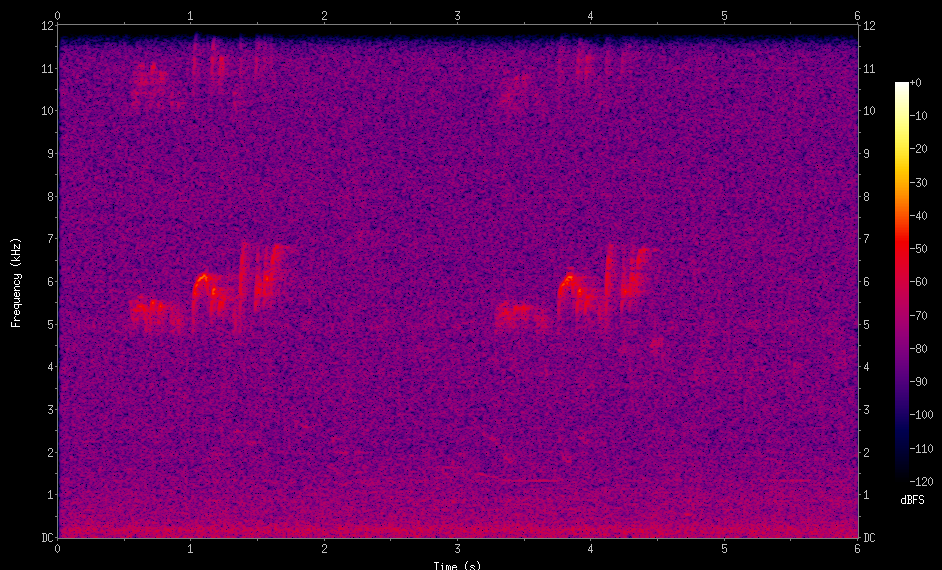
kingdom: Animalia
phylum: Chordata
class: Aves
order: Passeriformes
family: Tyrannidae
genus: Tyrannus
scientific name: Tyrannus melancholicus
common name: Tropical kingbird
